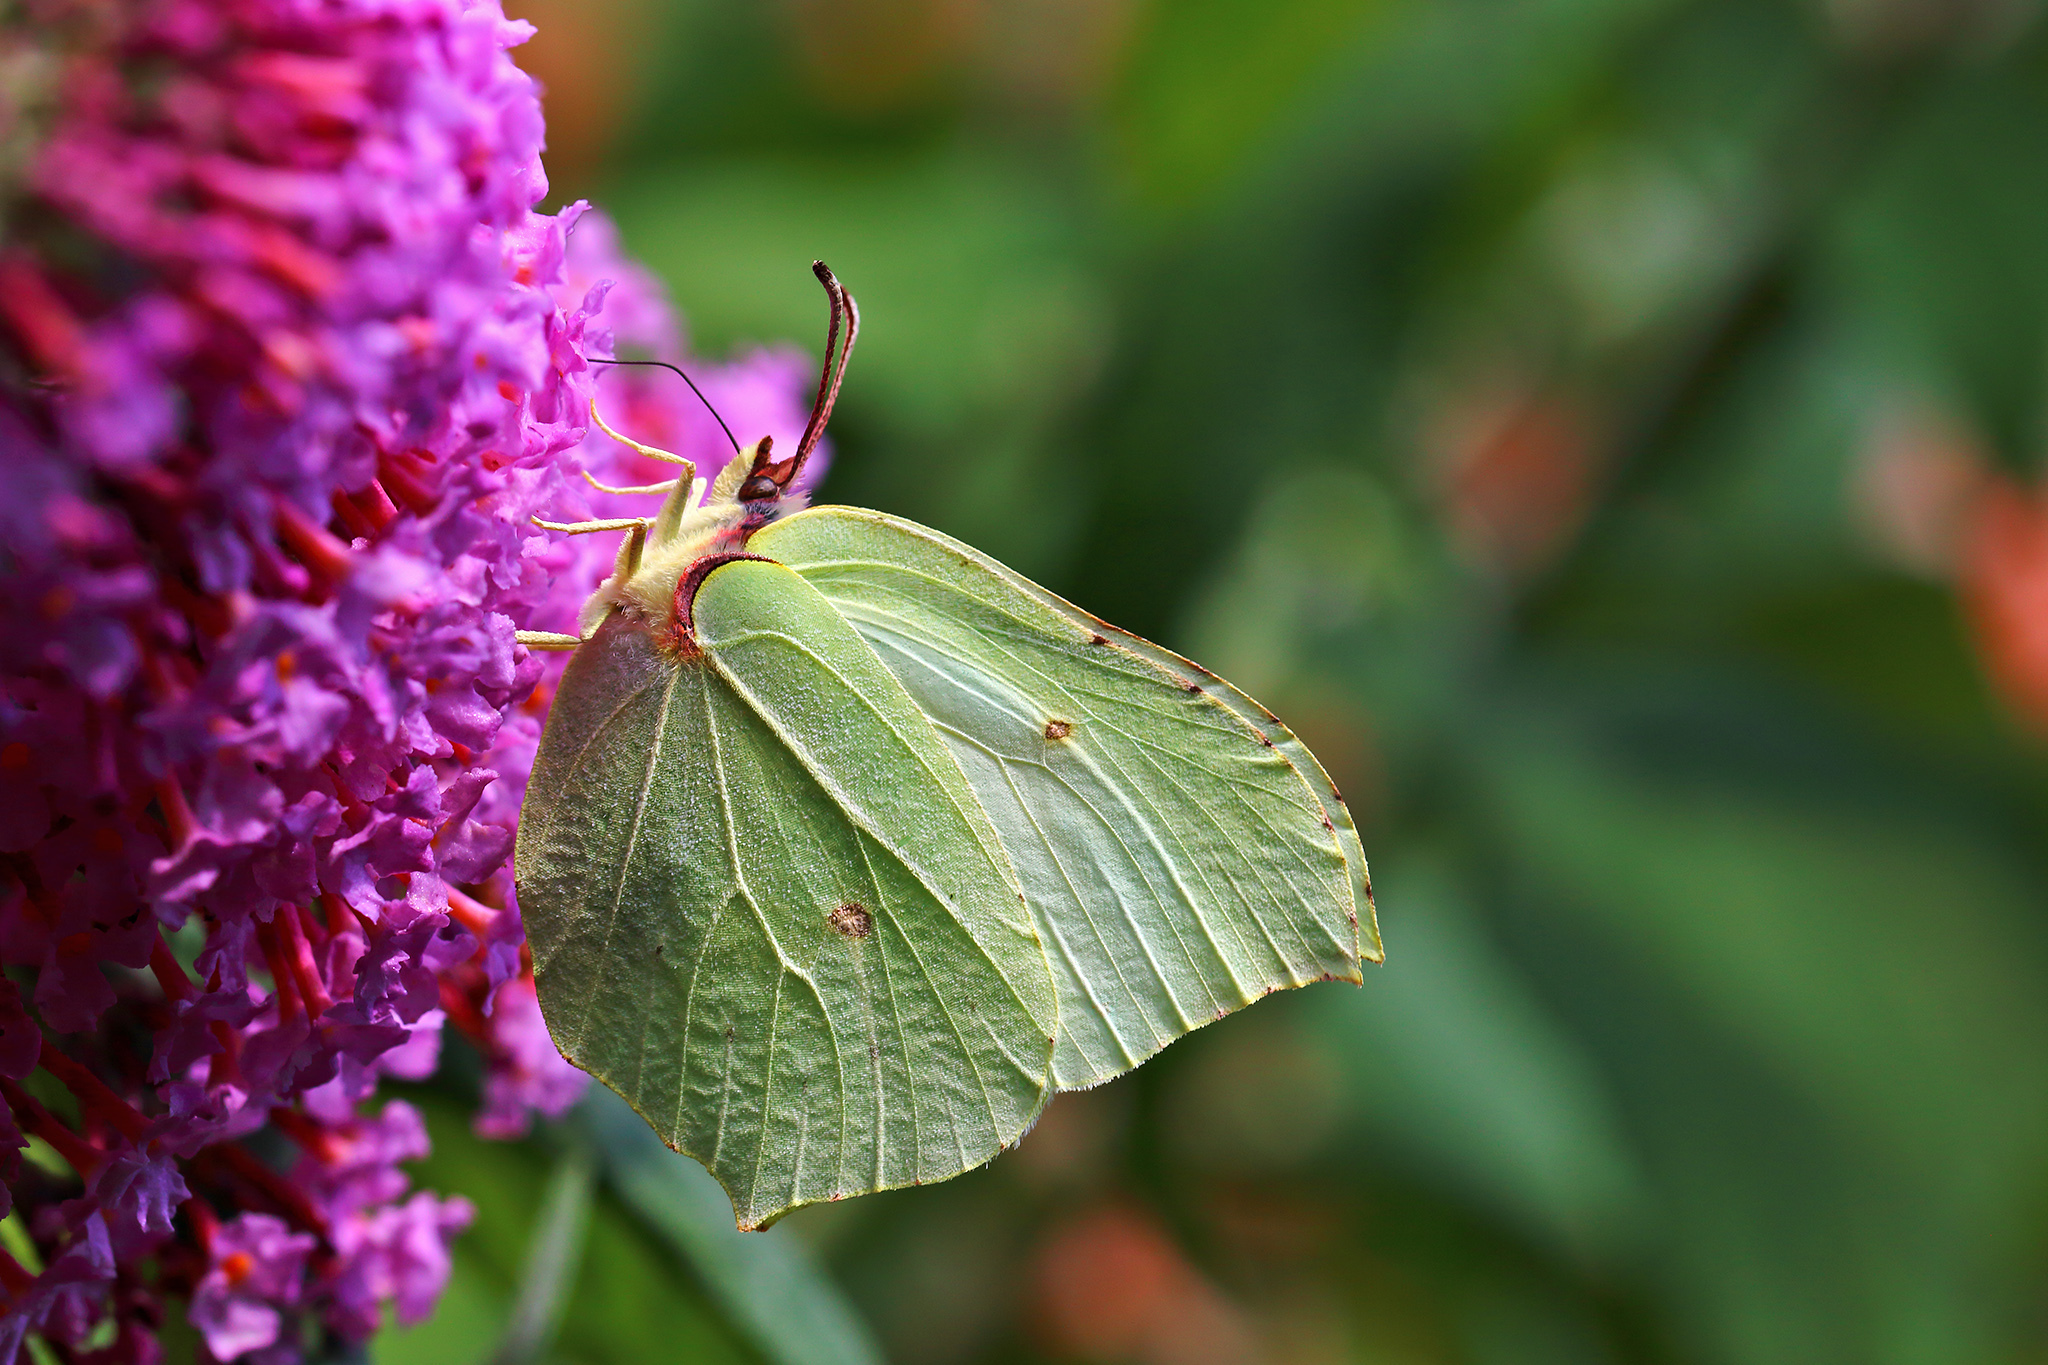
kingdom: Animalia
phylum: Arthropoda
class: Insecta
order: Lepidoptera
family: Pieridae
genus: Gonepteryx
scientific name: Gonepteryx rhamni
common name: Brimstone
